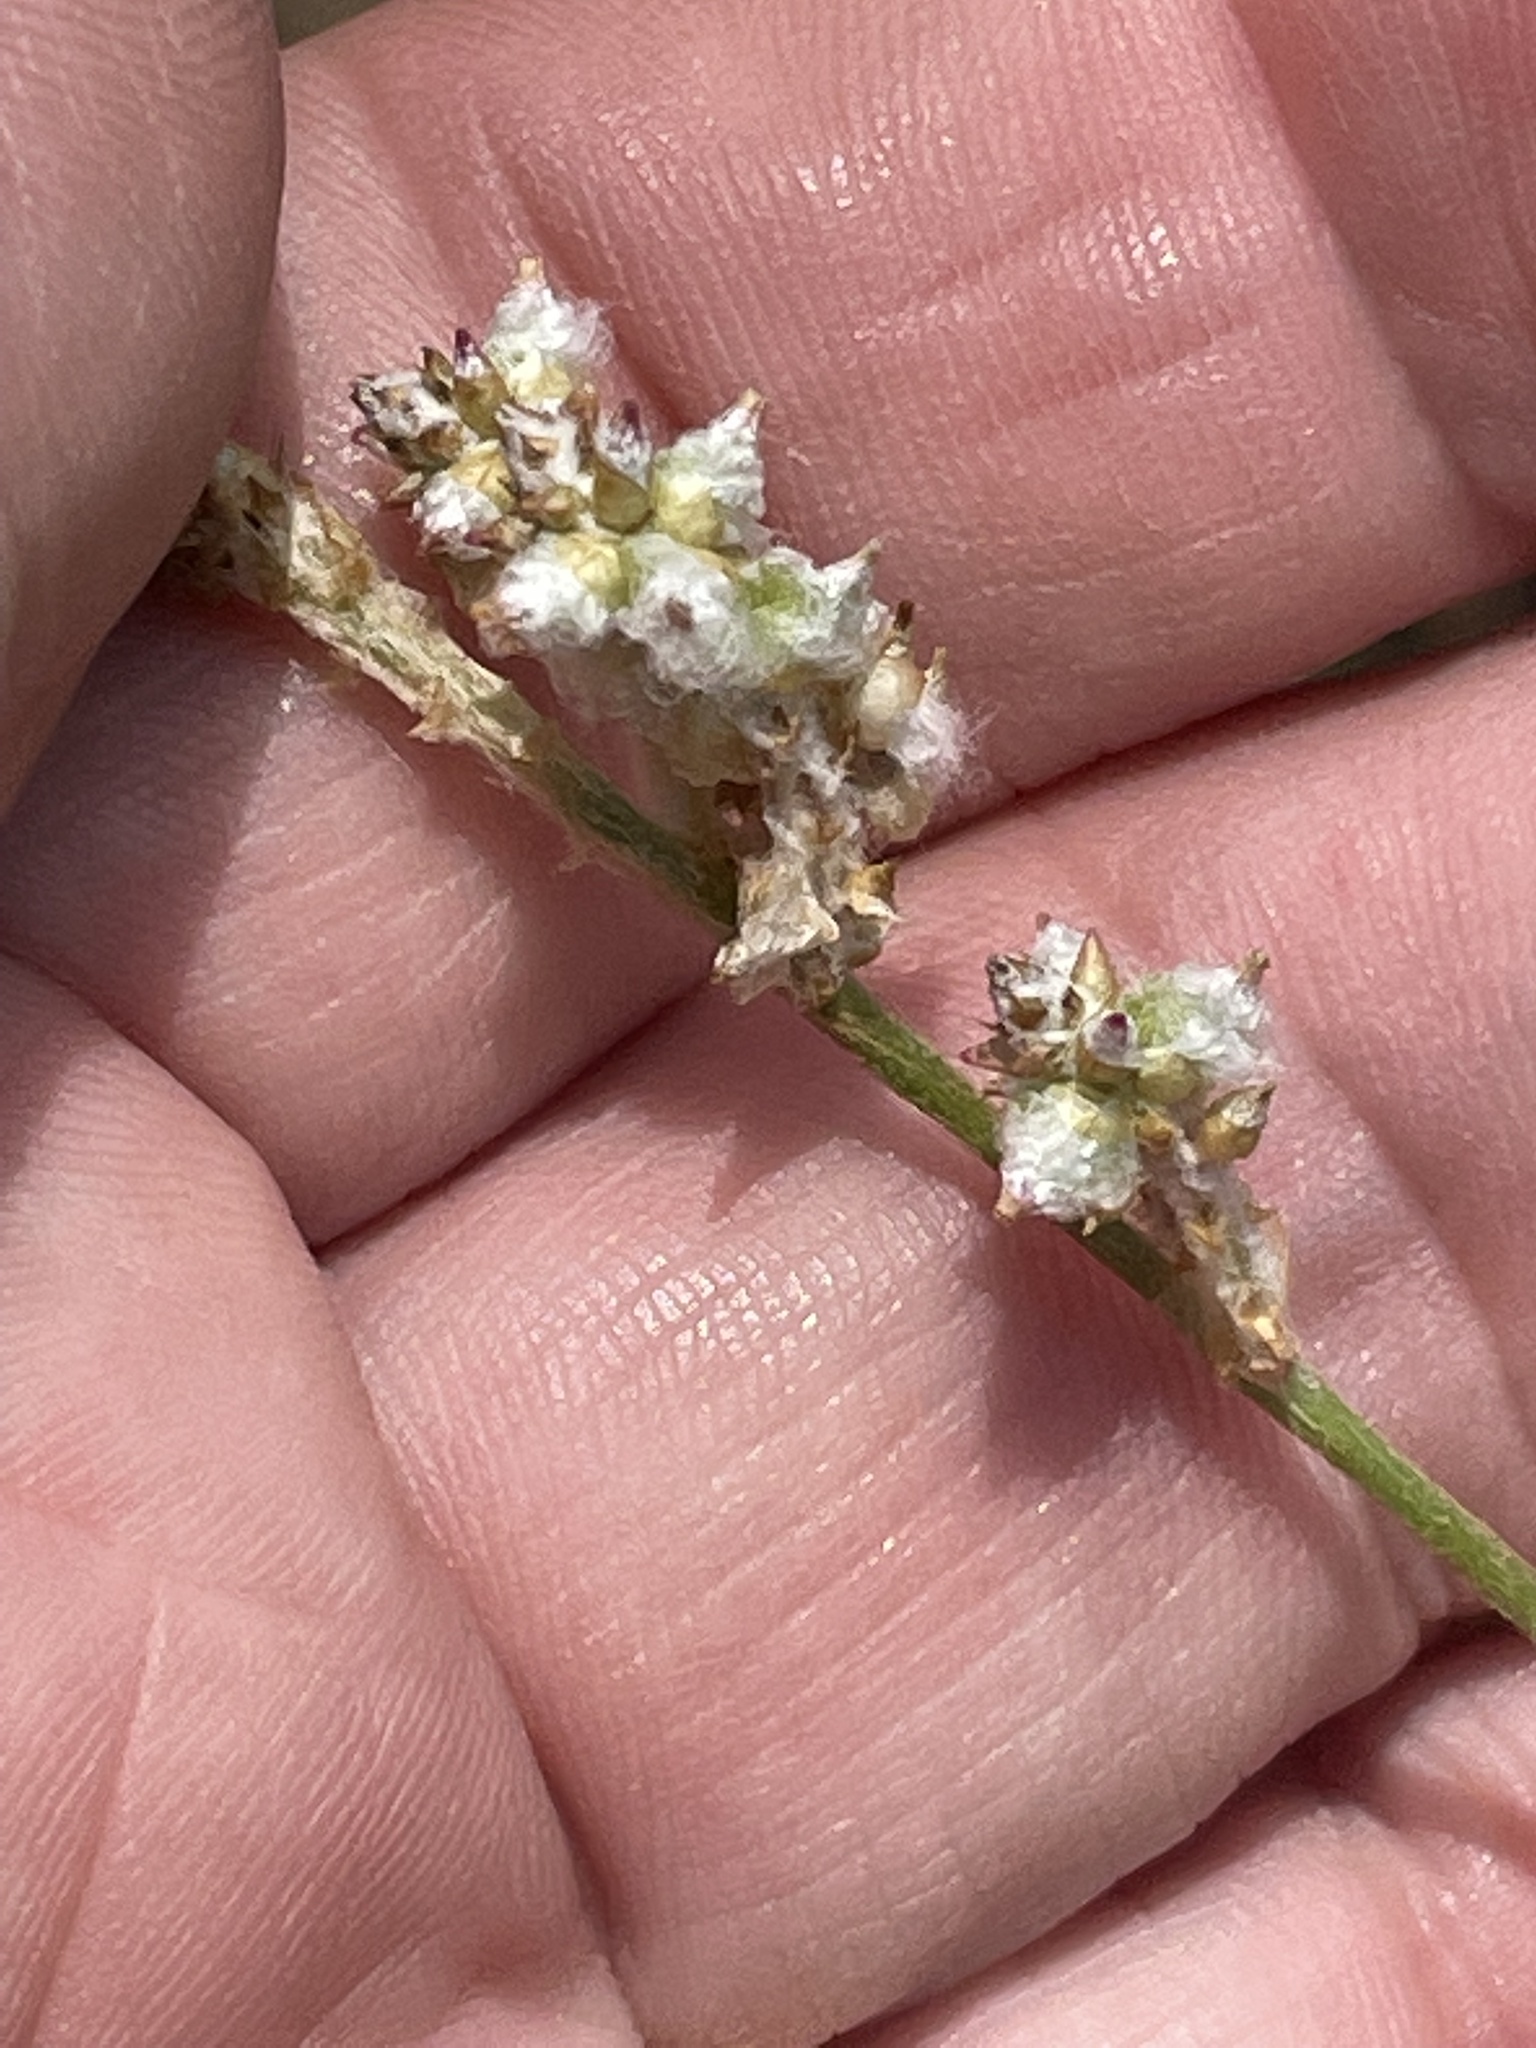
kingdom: Plantae
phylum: Tracheophyta
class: Magnoliopsida
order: Caryophyllales
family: Amaranthaceae
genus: Froelichia
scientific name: Froelichia gracilis
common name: Slender cottonweed
